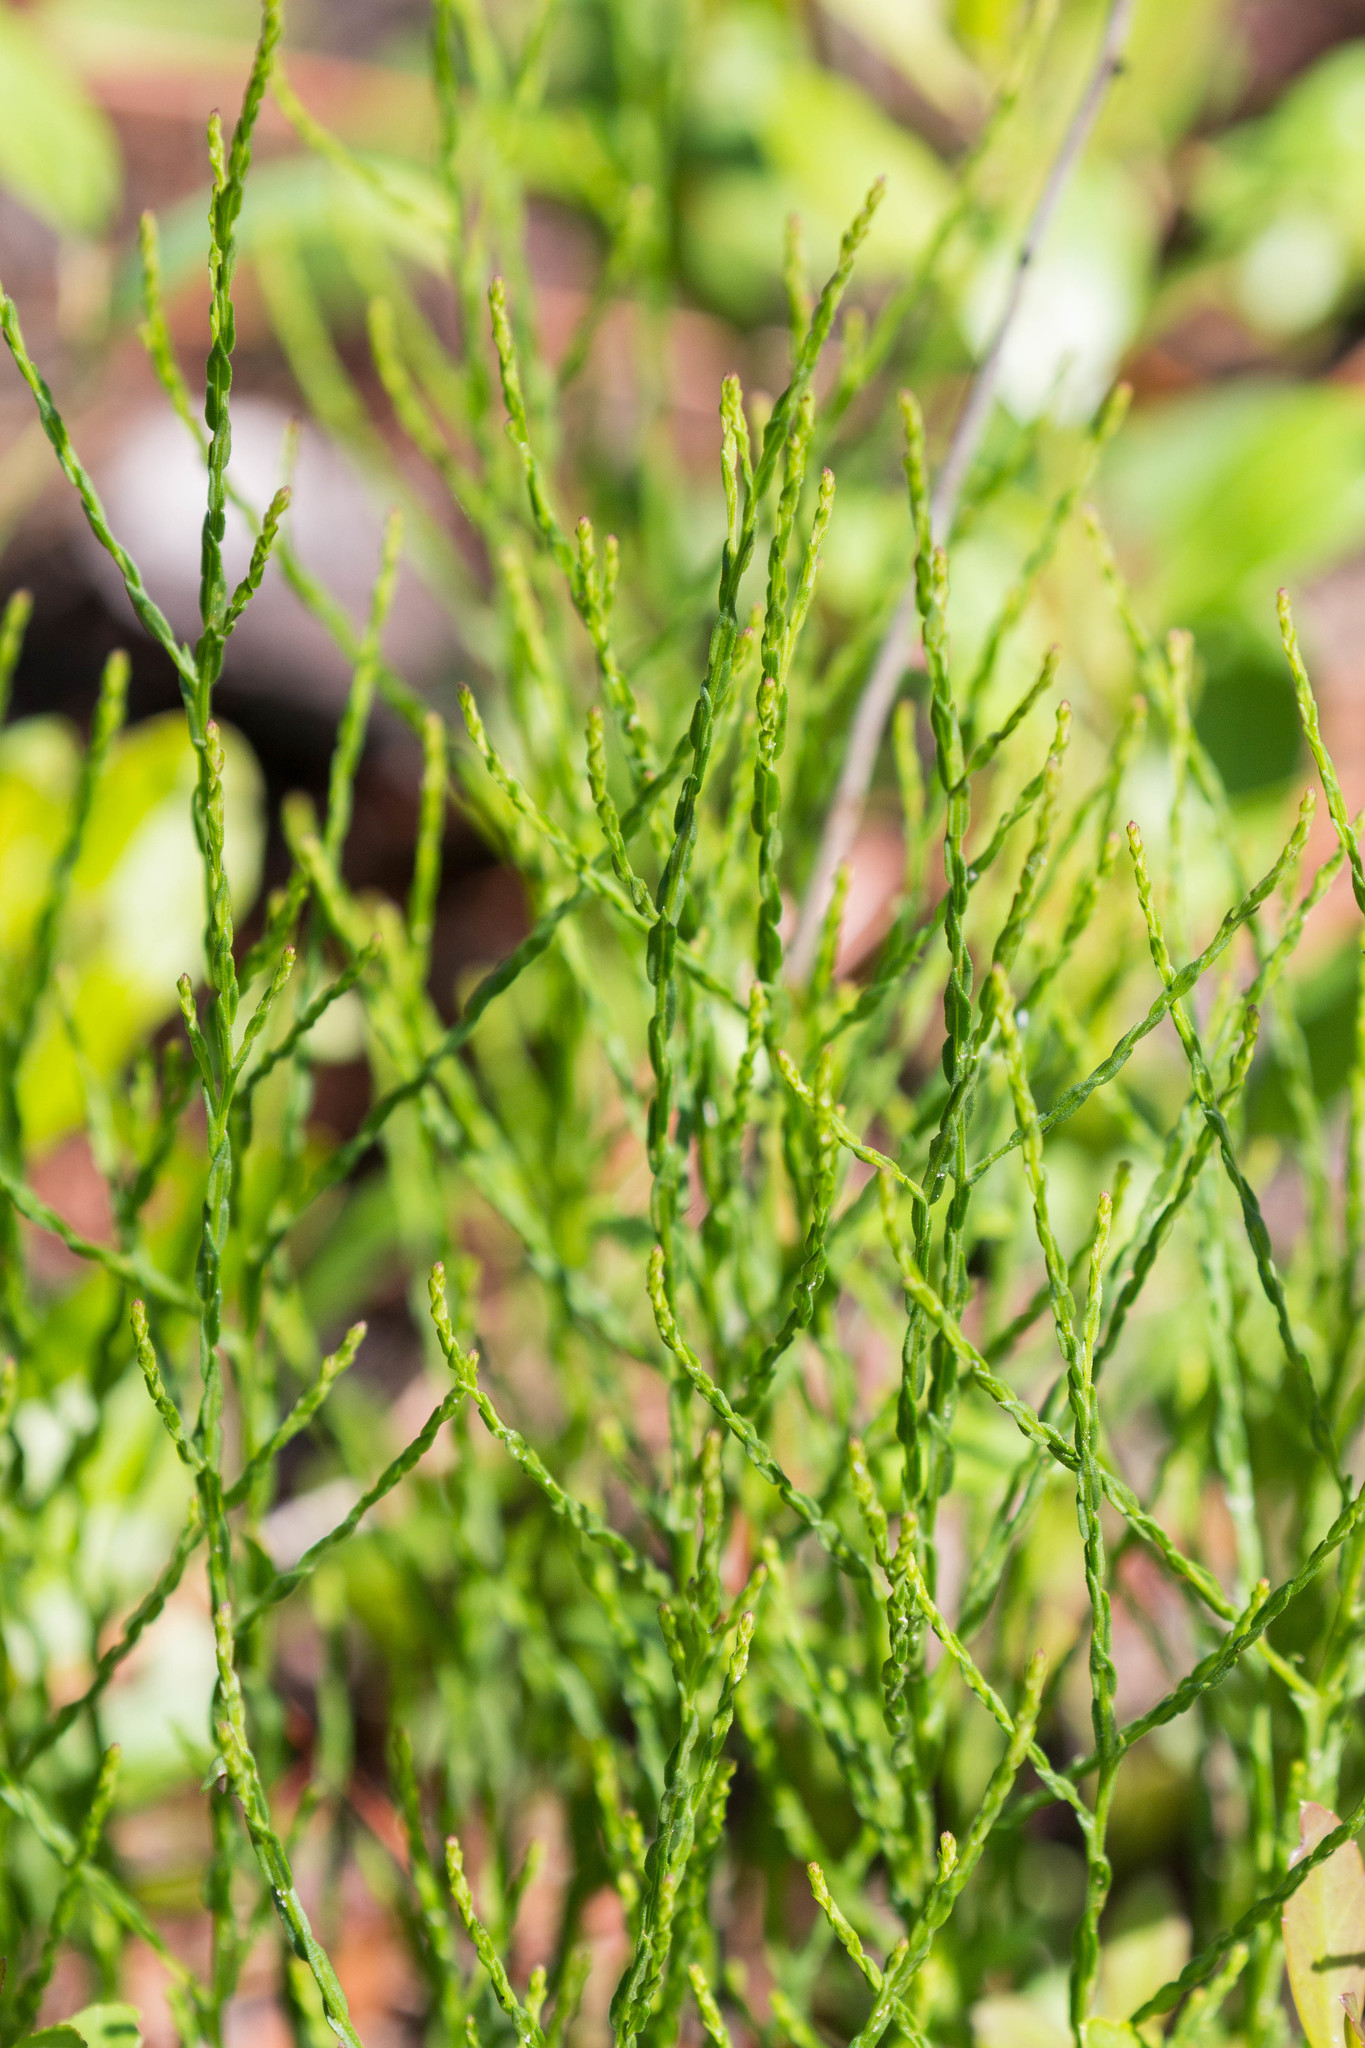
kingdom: Plantae
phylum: Tracheophyta
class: Magnoliopsida
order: Asterales
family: Asteraceae
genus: Symphyotrichum
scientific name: Symphyotrichum adnatum
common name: Scale-leaf aster
